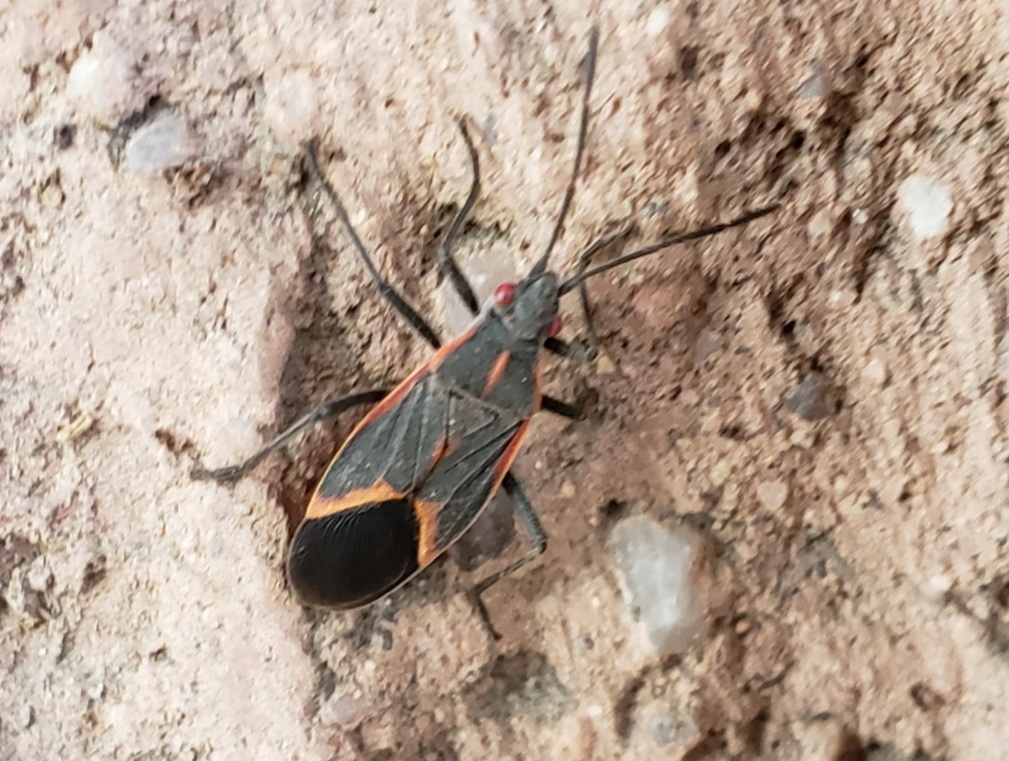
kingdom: Animalia
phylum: Arthropoda
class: Insecta
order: Hemiptera
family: Rhopalidae
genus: Boisea
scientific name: Boisea trivittata
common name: Boxelder bug
